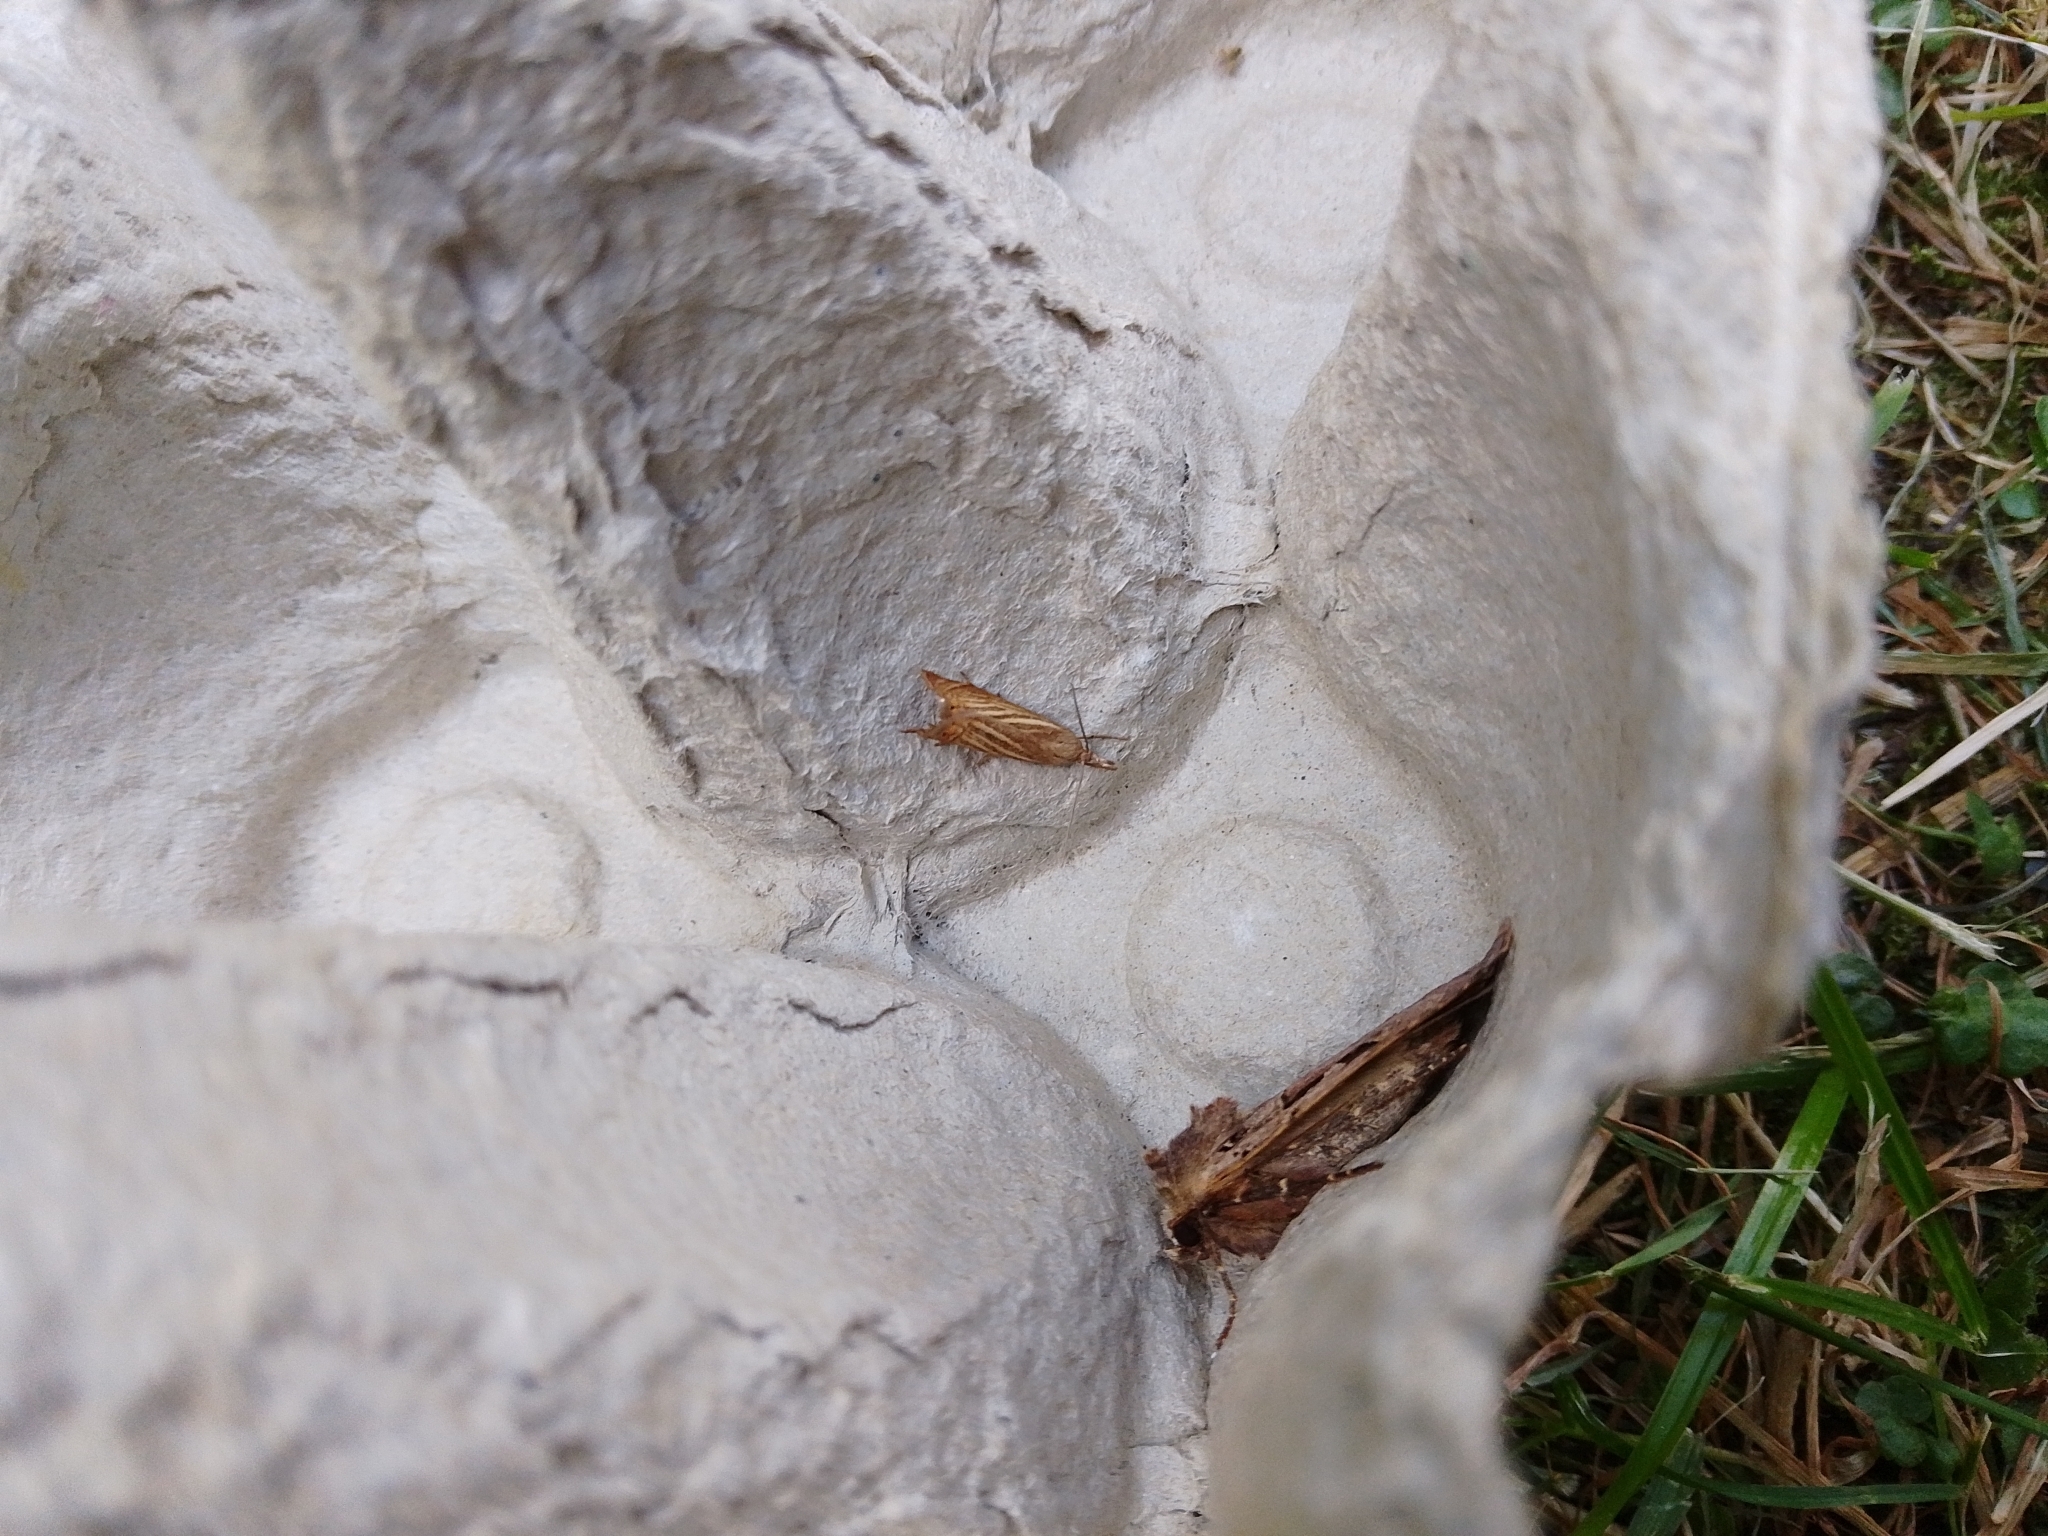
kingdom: Animalia
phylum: Arthropoda
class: Insecta
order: Lepidoptera
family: Crambidae
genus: Chrysoteuchia
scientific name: Chrysoteuchia culmella
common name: Garden grass-veneer
